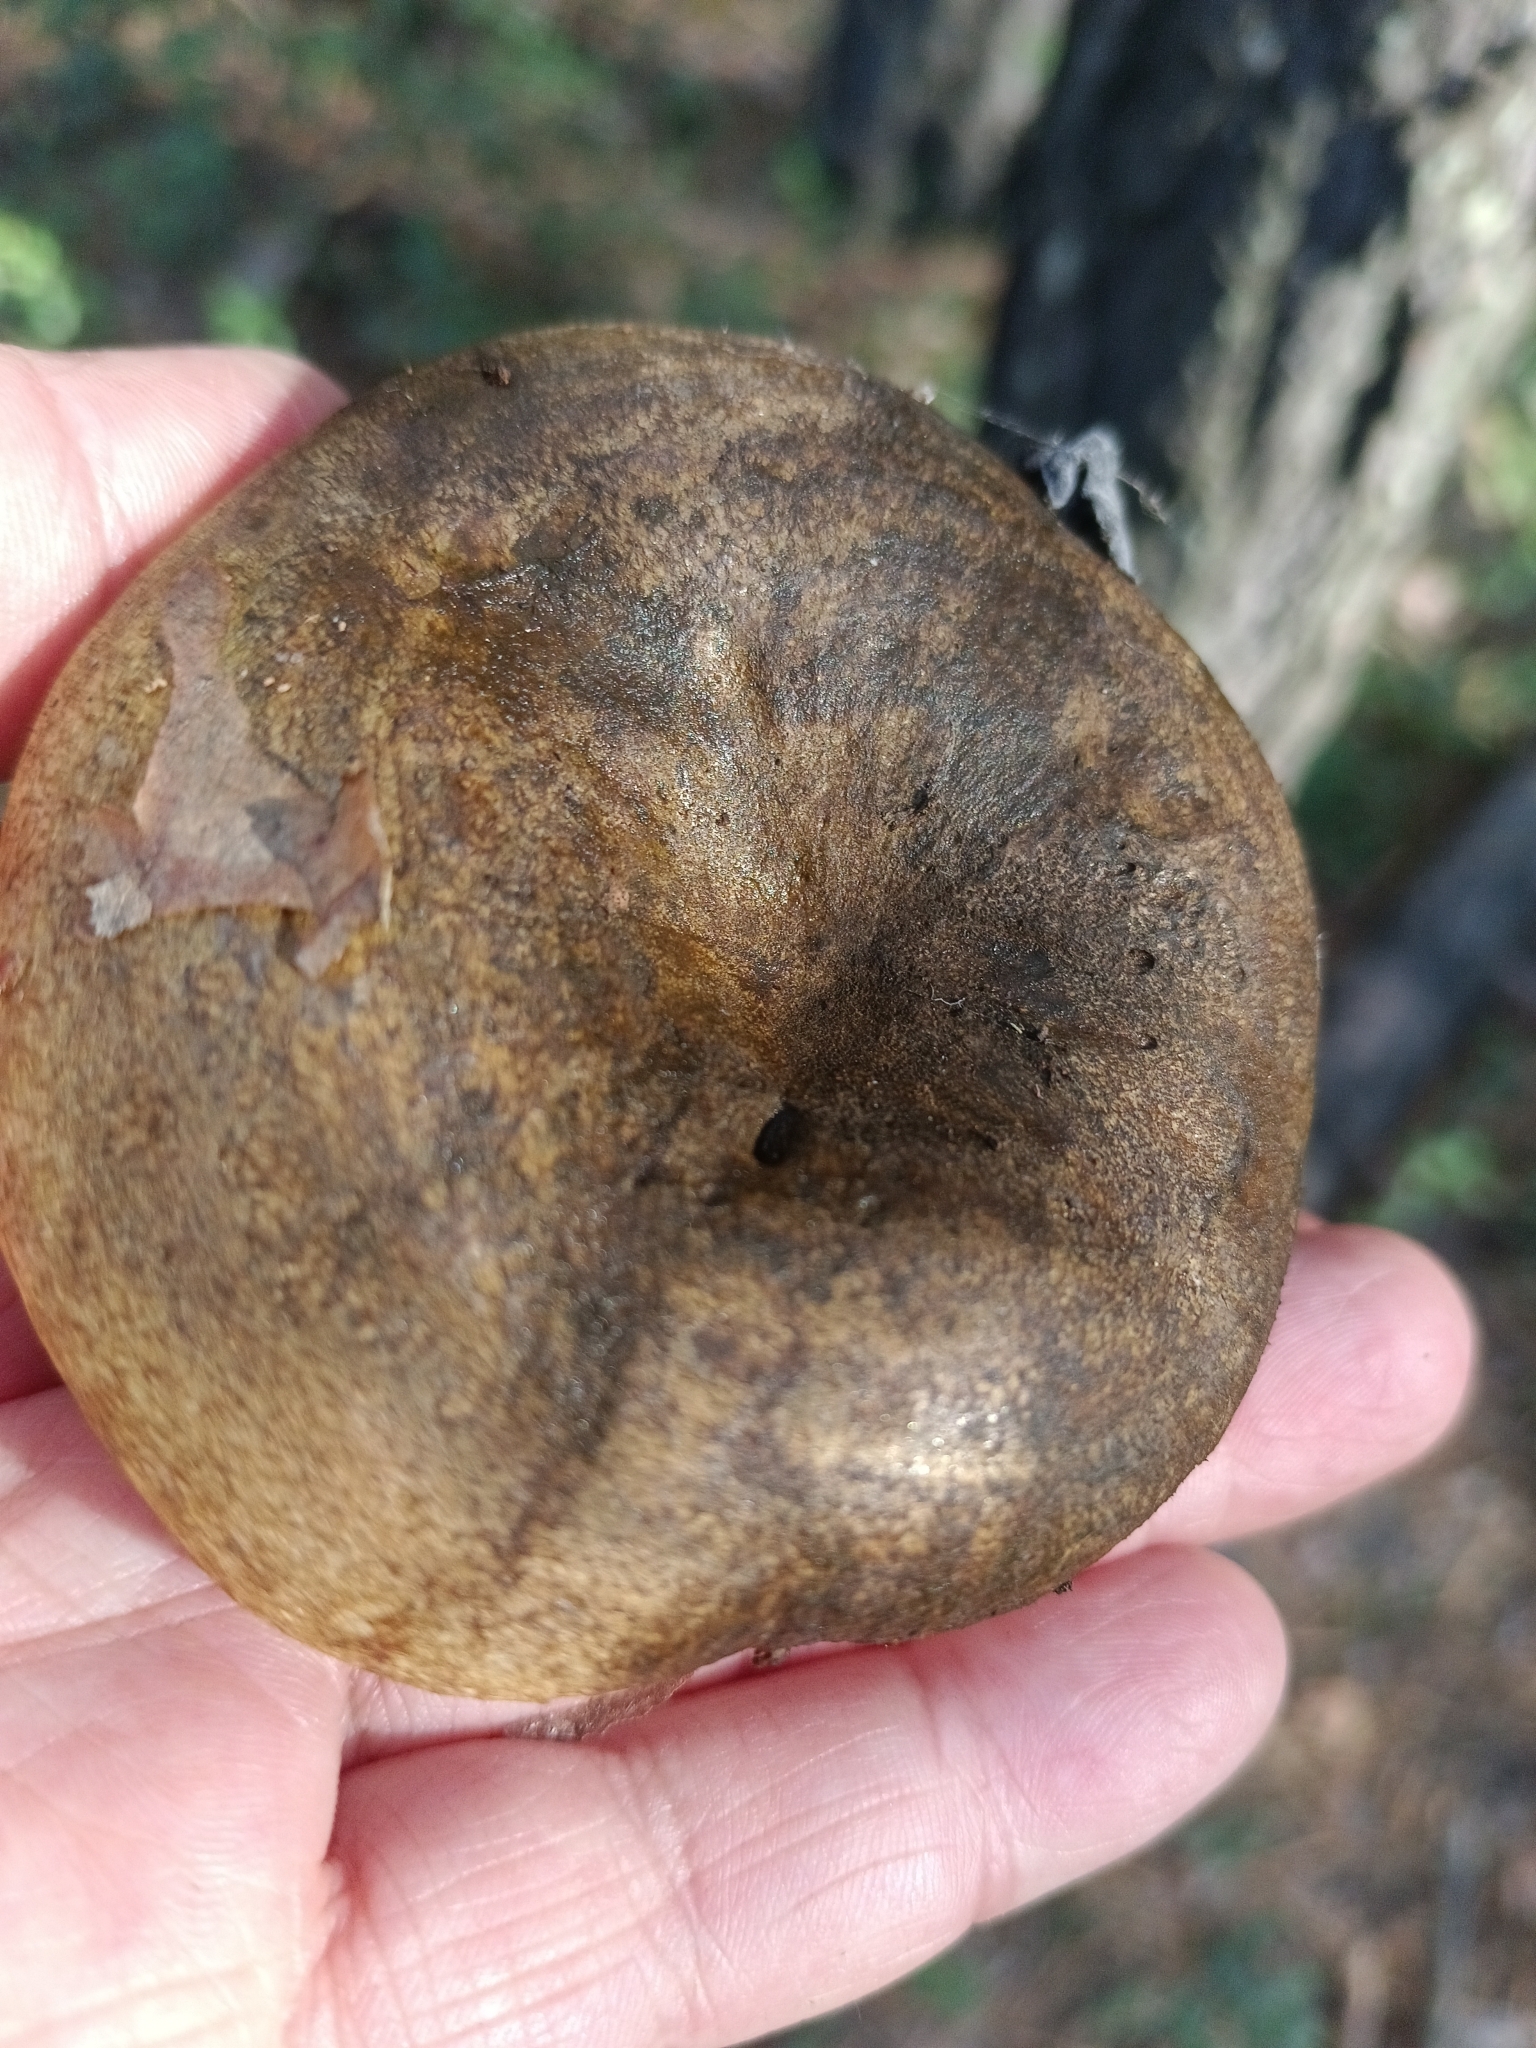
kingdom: Fungi
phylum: Basidiomycota
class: Agaricomycetes
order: Russulales
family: Russulaceae
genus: Lactarius
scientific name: Lactarius turpis
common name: Ugly milk-cap
